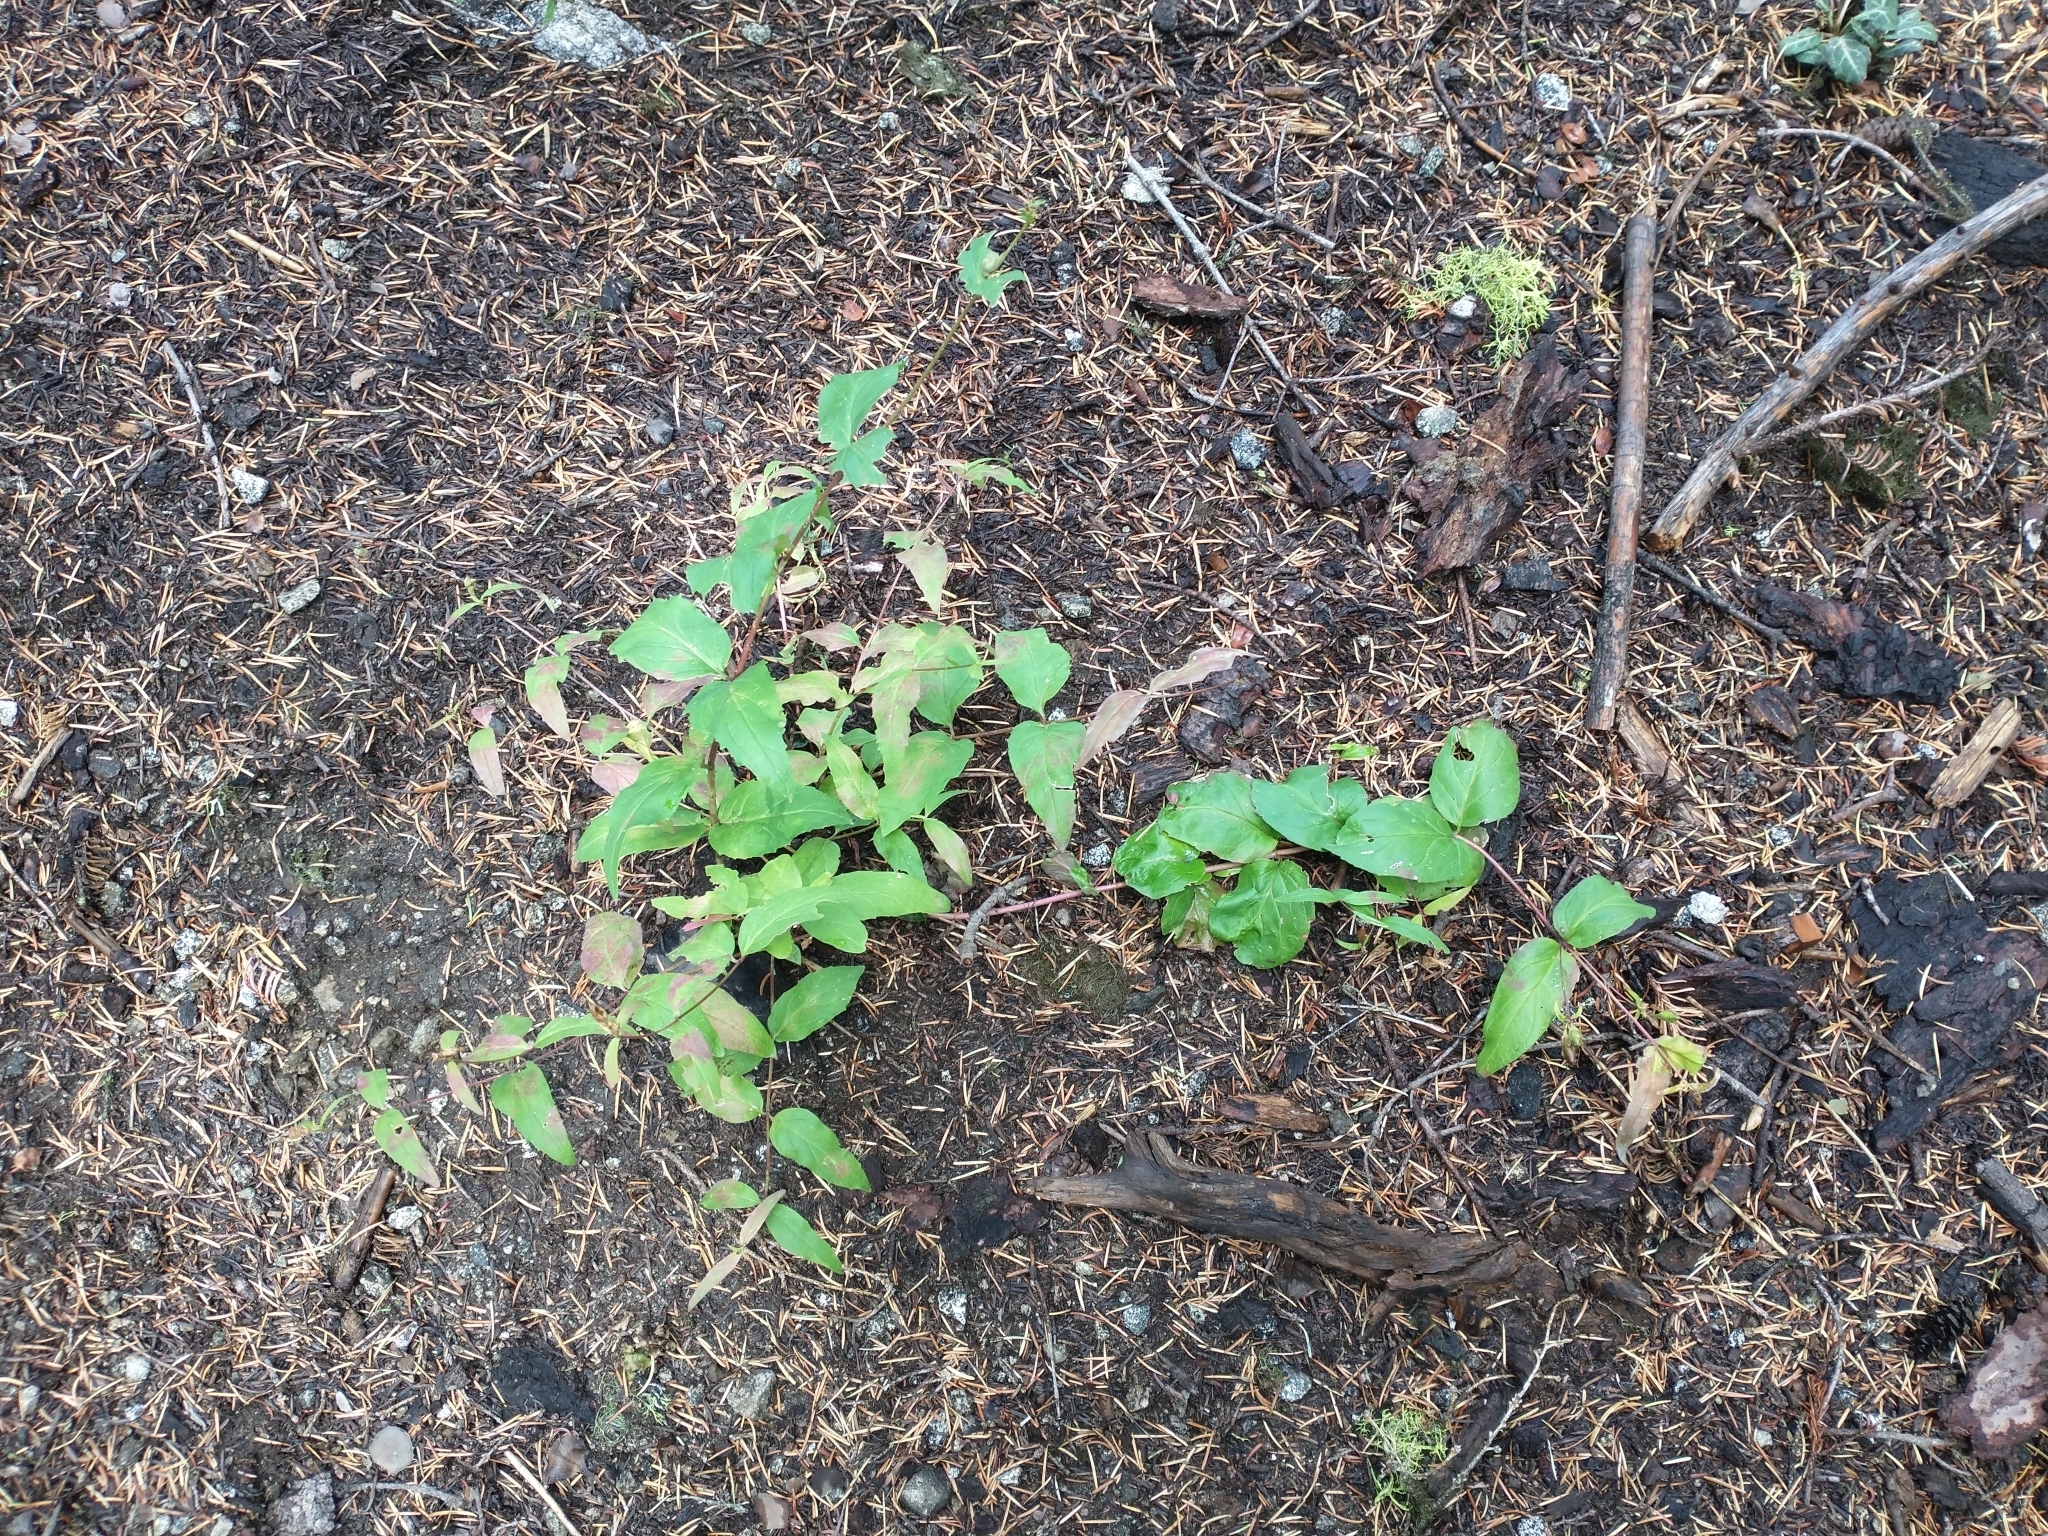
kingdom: Plantae
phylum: Tracheophyta
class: Magnoliopsida
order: Lamiales
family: Plantaginaceae
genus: Nothochelone
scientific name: Nothochelone nemorosa
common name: Woodland beardtongue
